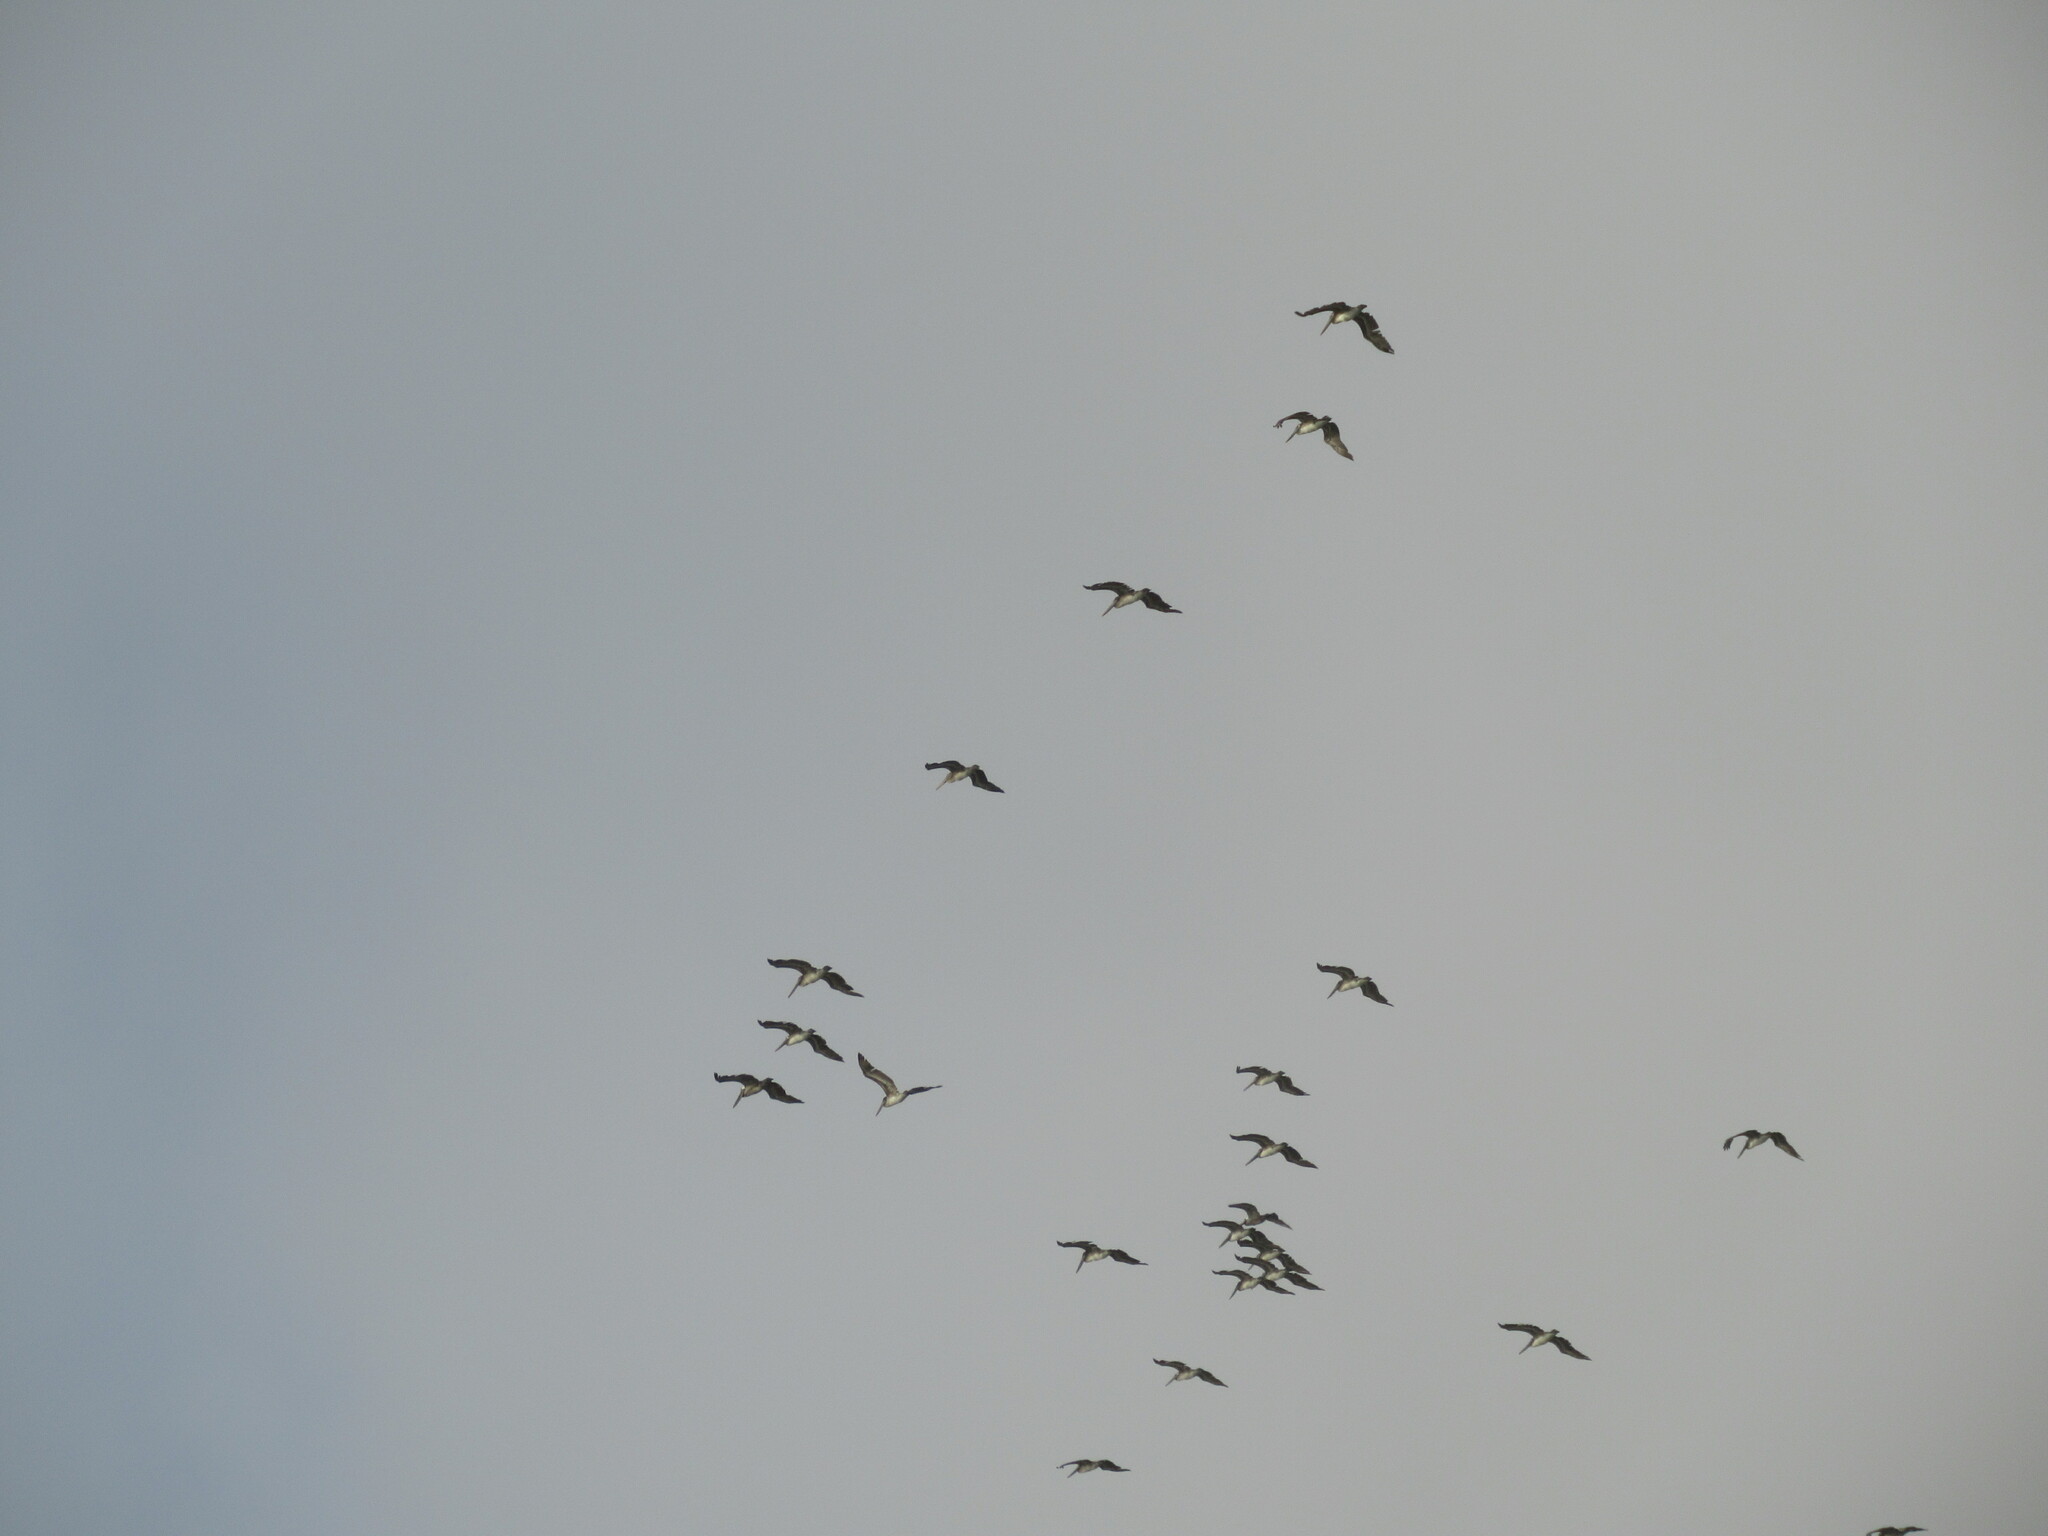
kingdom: Animalia
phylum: Chordata
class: Aves
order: Pelecaniformes
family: Pelecanidae
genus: Pelecanus
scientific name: Pelecanus occidentalis
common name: Brown pelican
